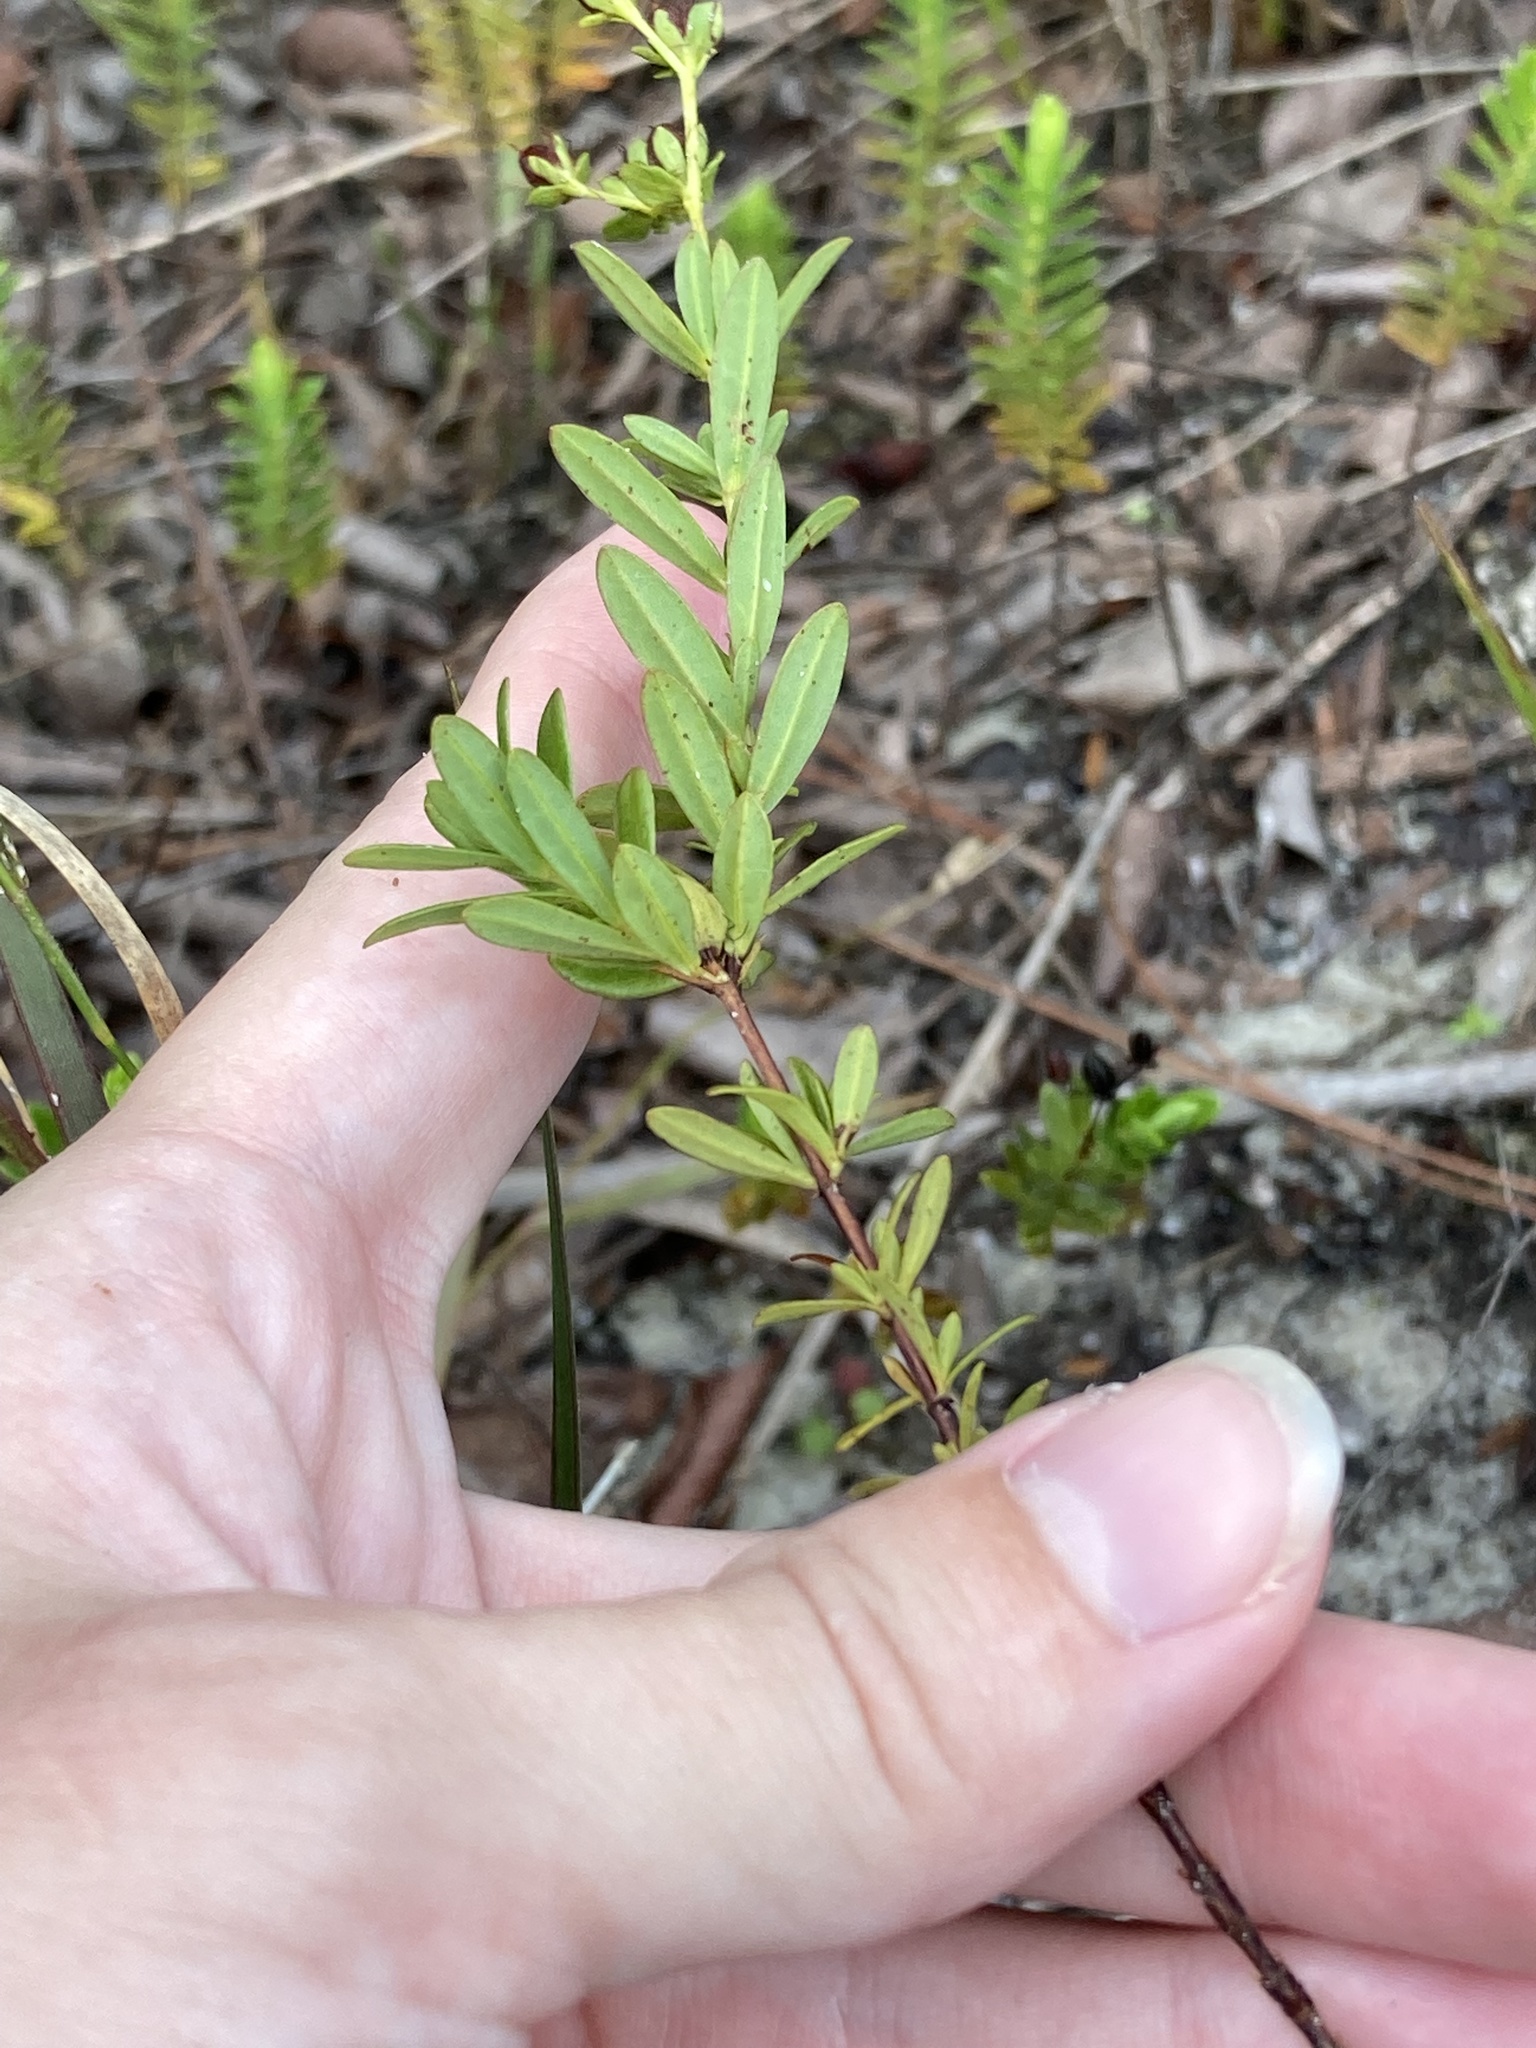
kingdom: Plantae
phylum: Tracheophyta
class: Magnoliopsida
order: Malpighiales
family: Hypericaceae
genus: Hypericum
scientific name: Hypericum cistifolium
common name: Round-pod st. john's-wort
